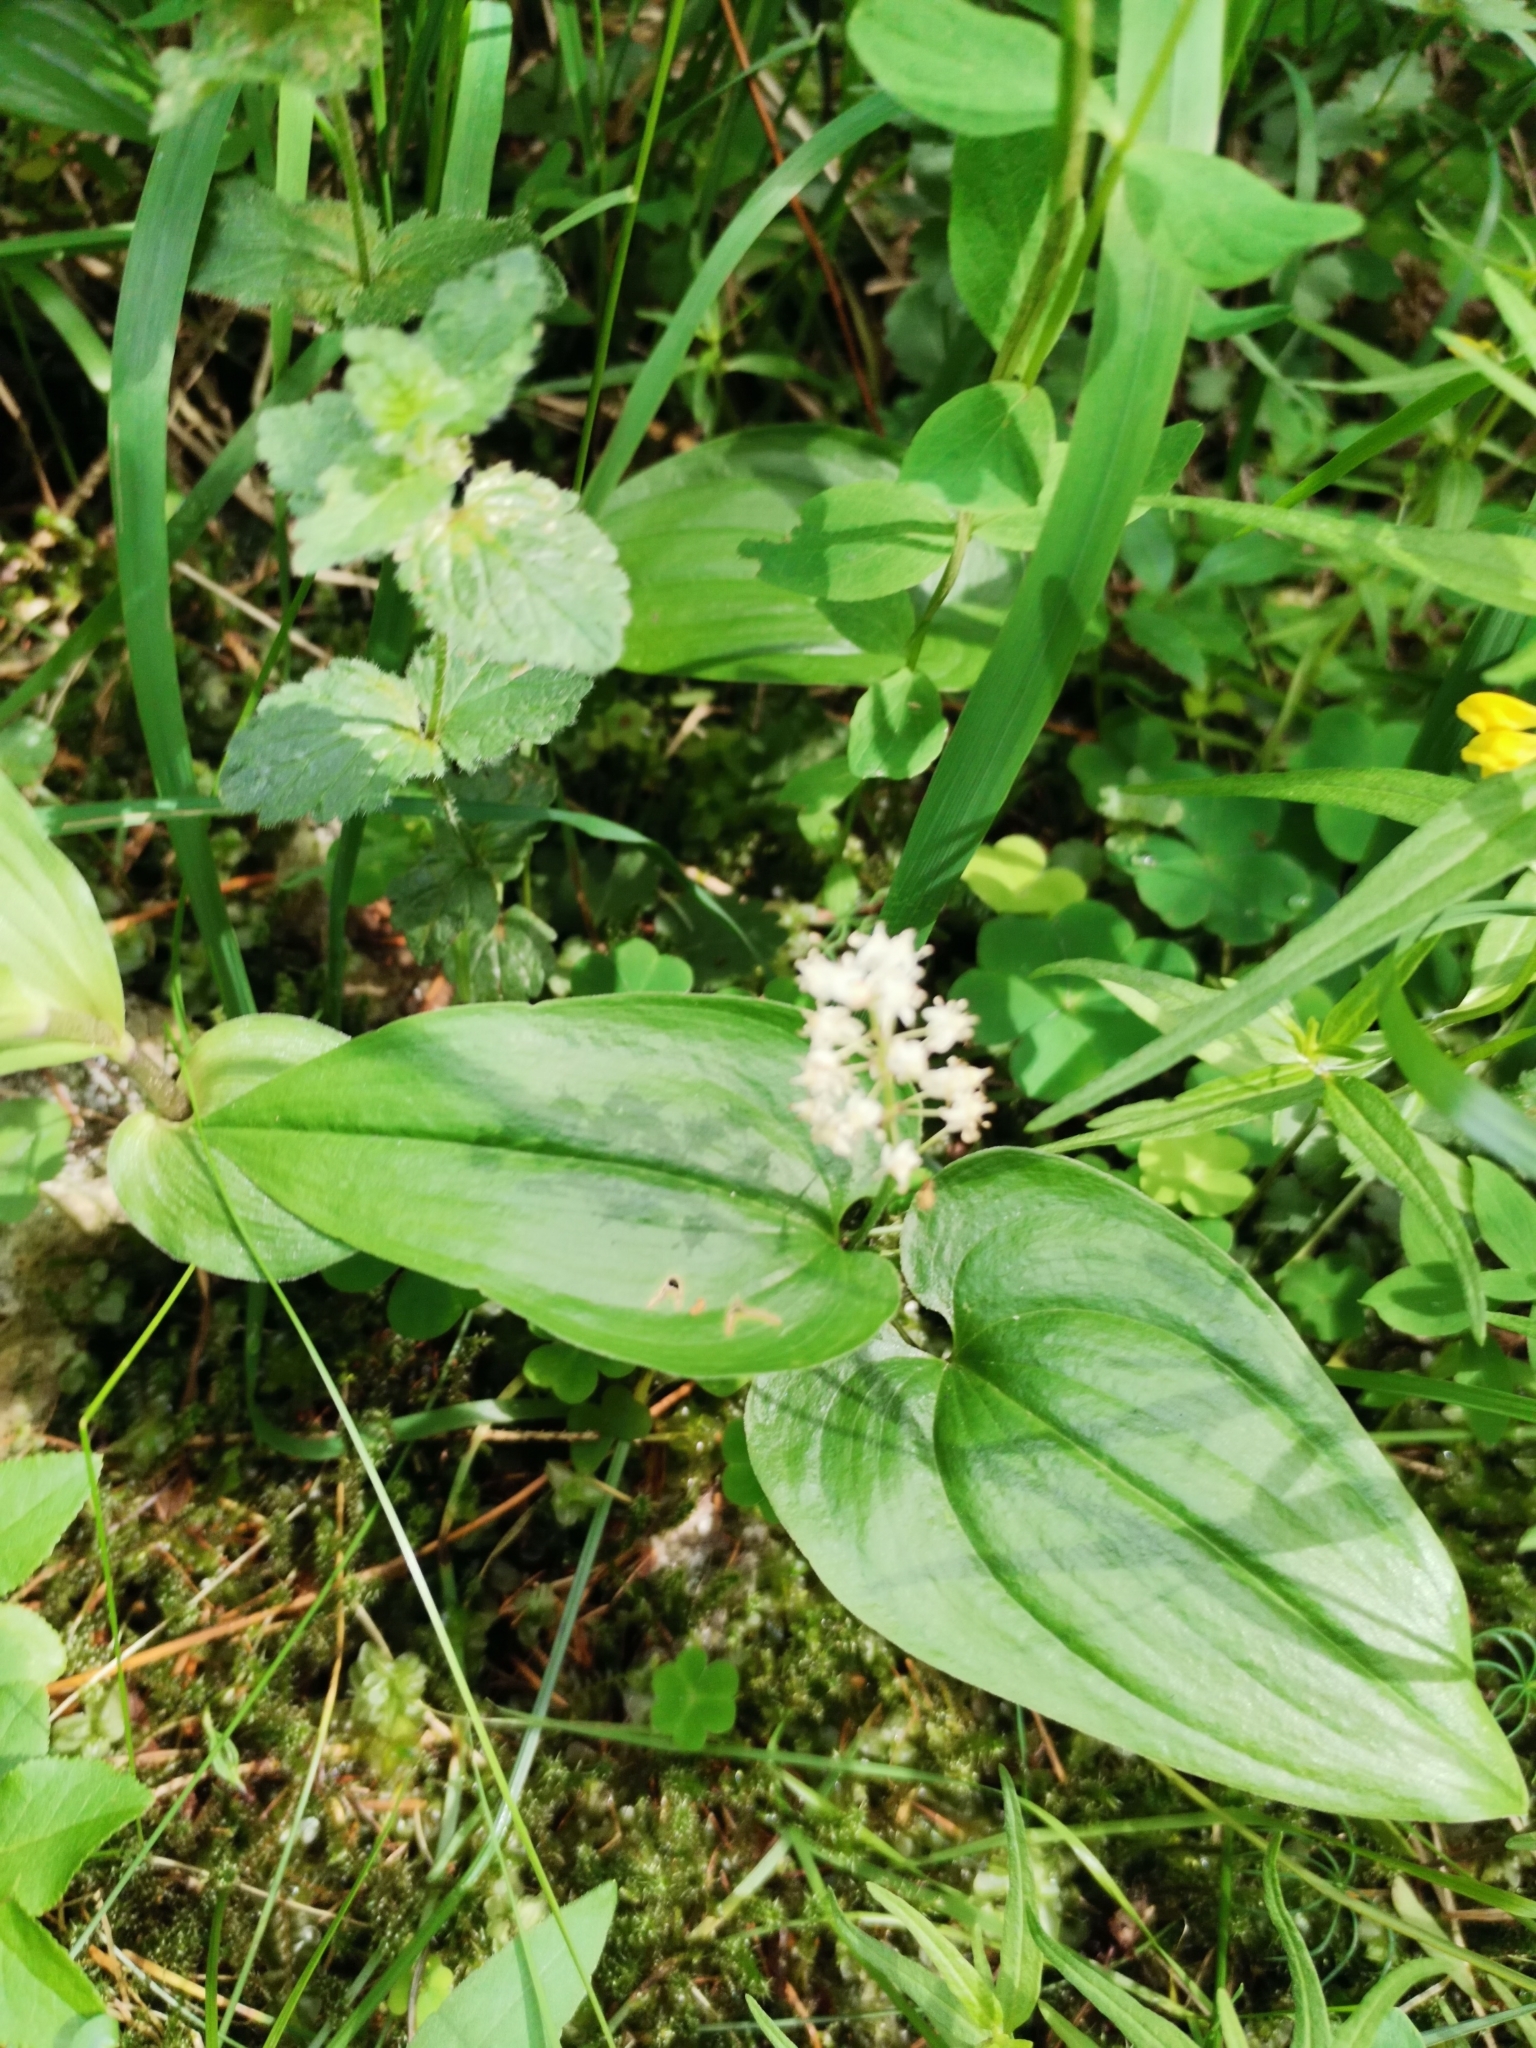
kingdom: Plantae
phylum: Tracheophyta
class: Liliopsida
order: Asparagales
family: Asparagaceae
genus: Maianthemum
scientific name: Maianthemum bifolium
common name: May lily
